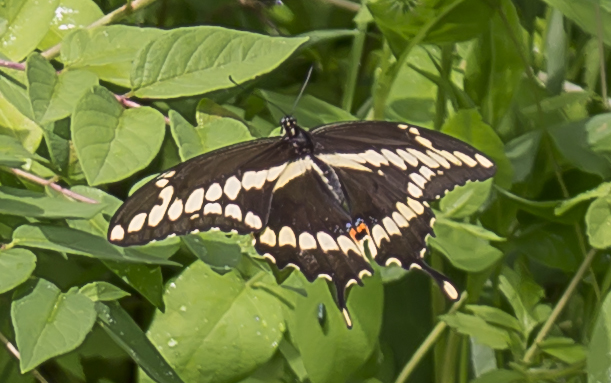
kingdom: Animalia
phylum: Arthropoda
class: Insecta
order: Lepidoptera
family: Papilionidae
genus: Papilio
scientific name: Papilio cresphontes
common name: Giant swallowtail
